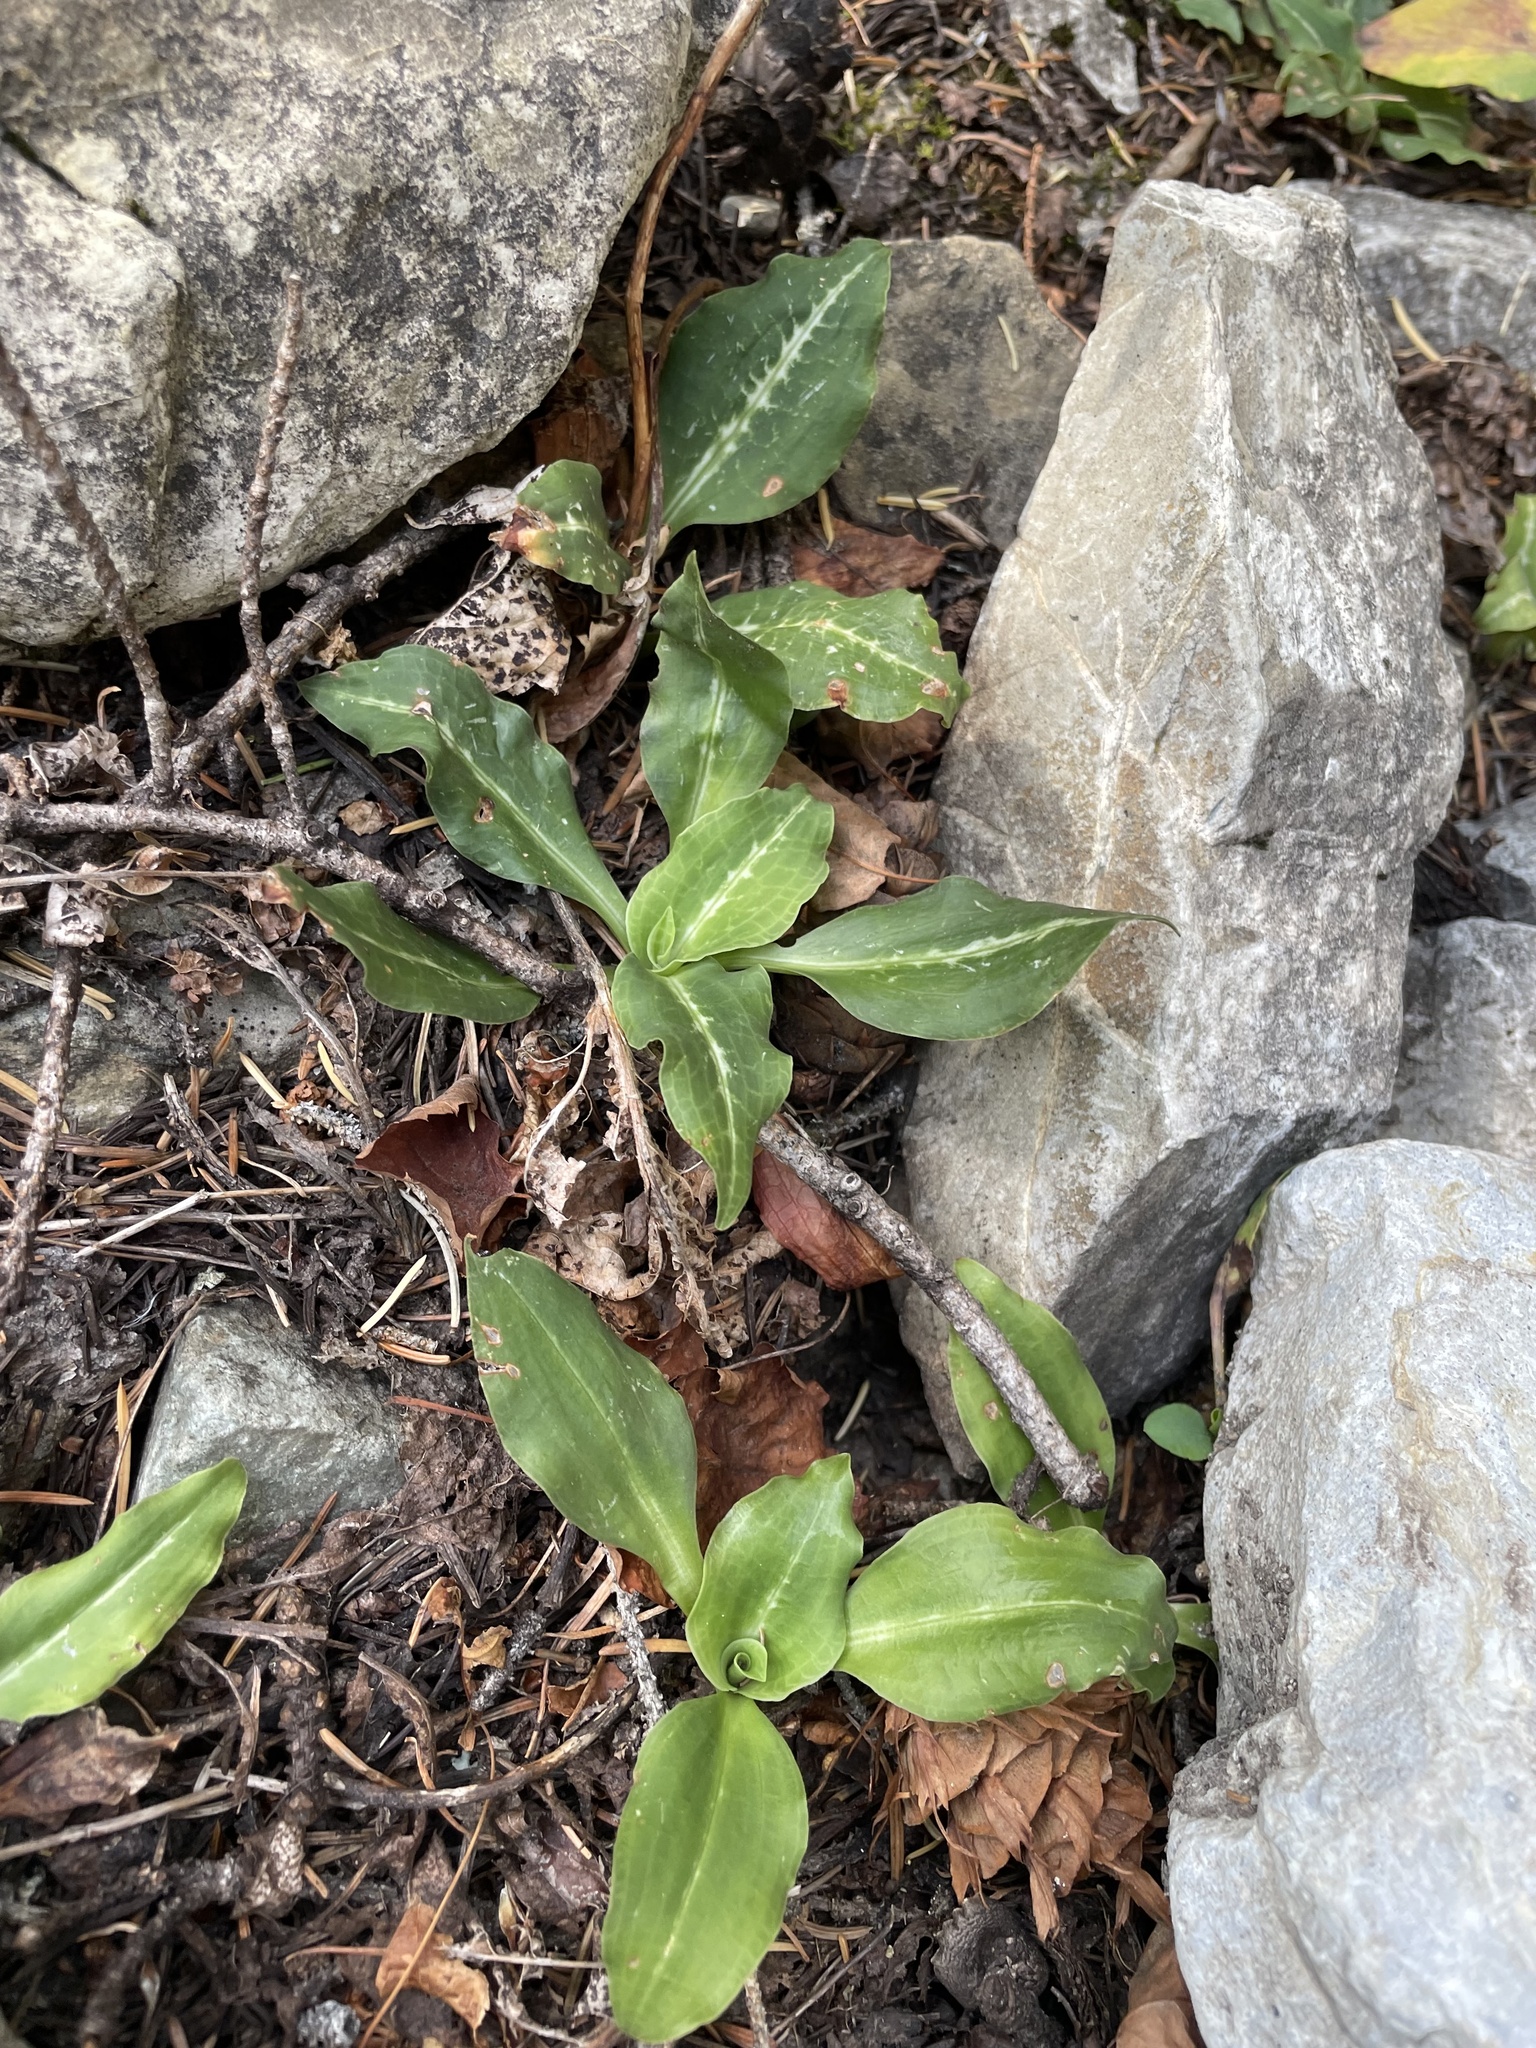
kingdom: Plantae
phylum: Tracheophyta
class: Liliopsida
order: Asparagales
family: Orchidaceae
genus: Goodyera
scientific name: Goodyera oblongifolia
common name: Giant rattlesnake-plantain
